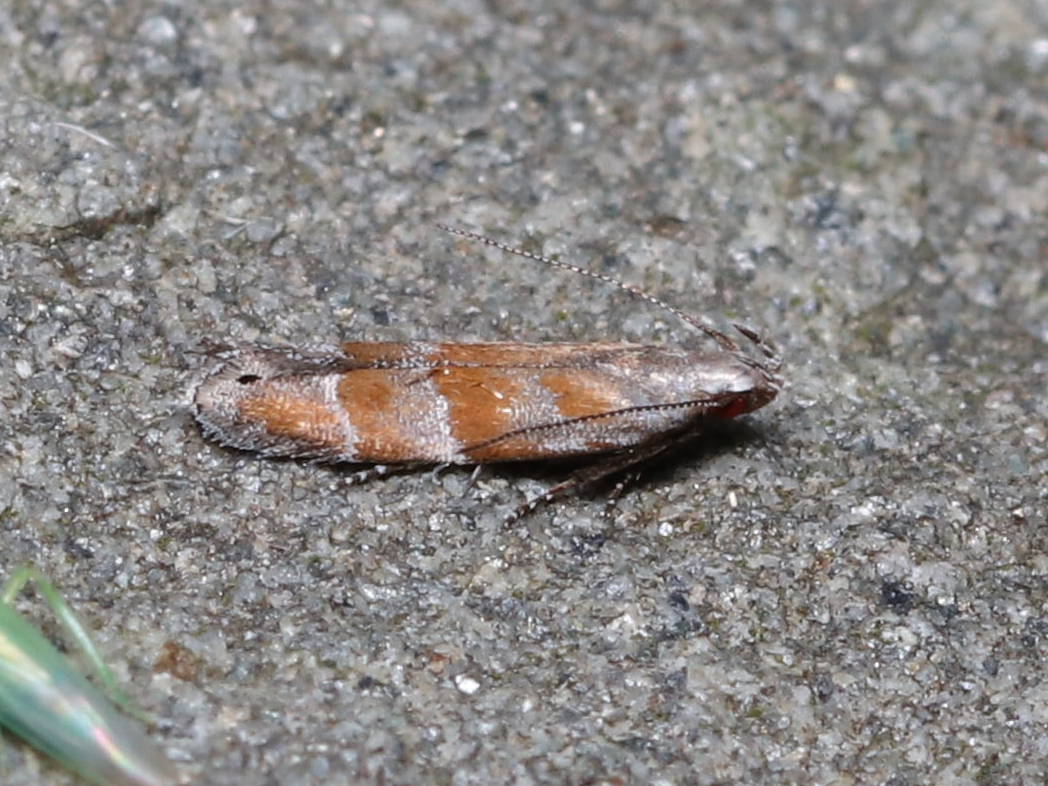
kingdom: Animalia
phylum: Arthropoda
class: Insecta
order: Lepidoptera
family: Gelechiidae
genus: Battaristis
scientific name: Battaristis vittella
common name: Orange stripe-backed moth
